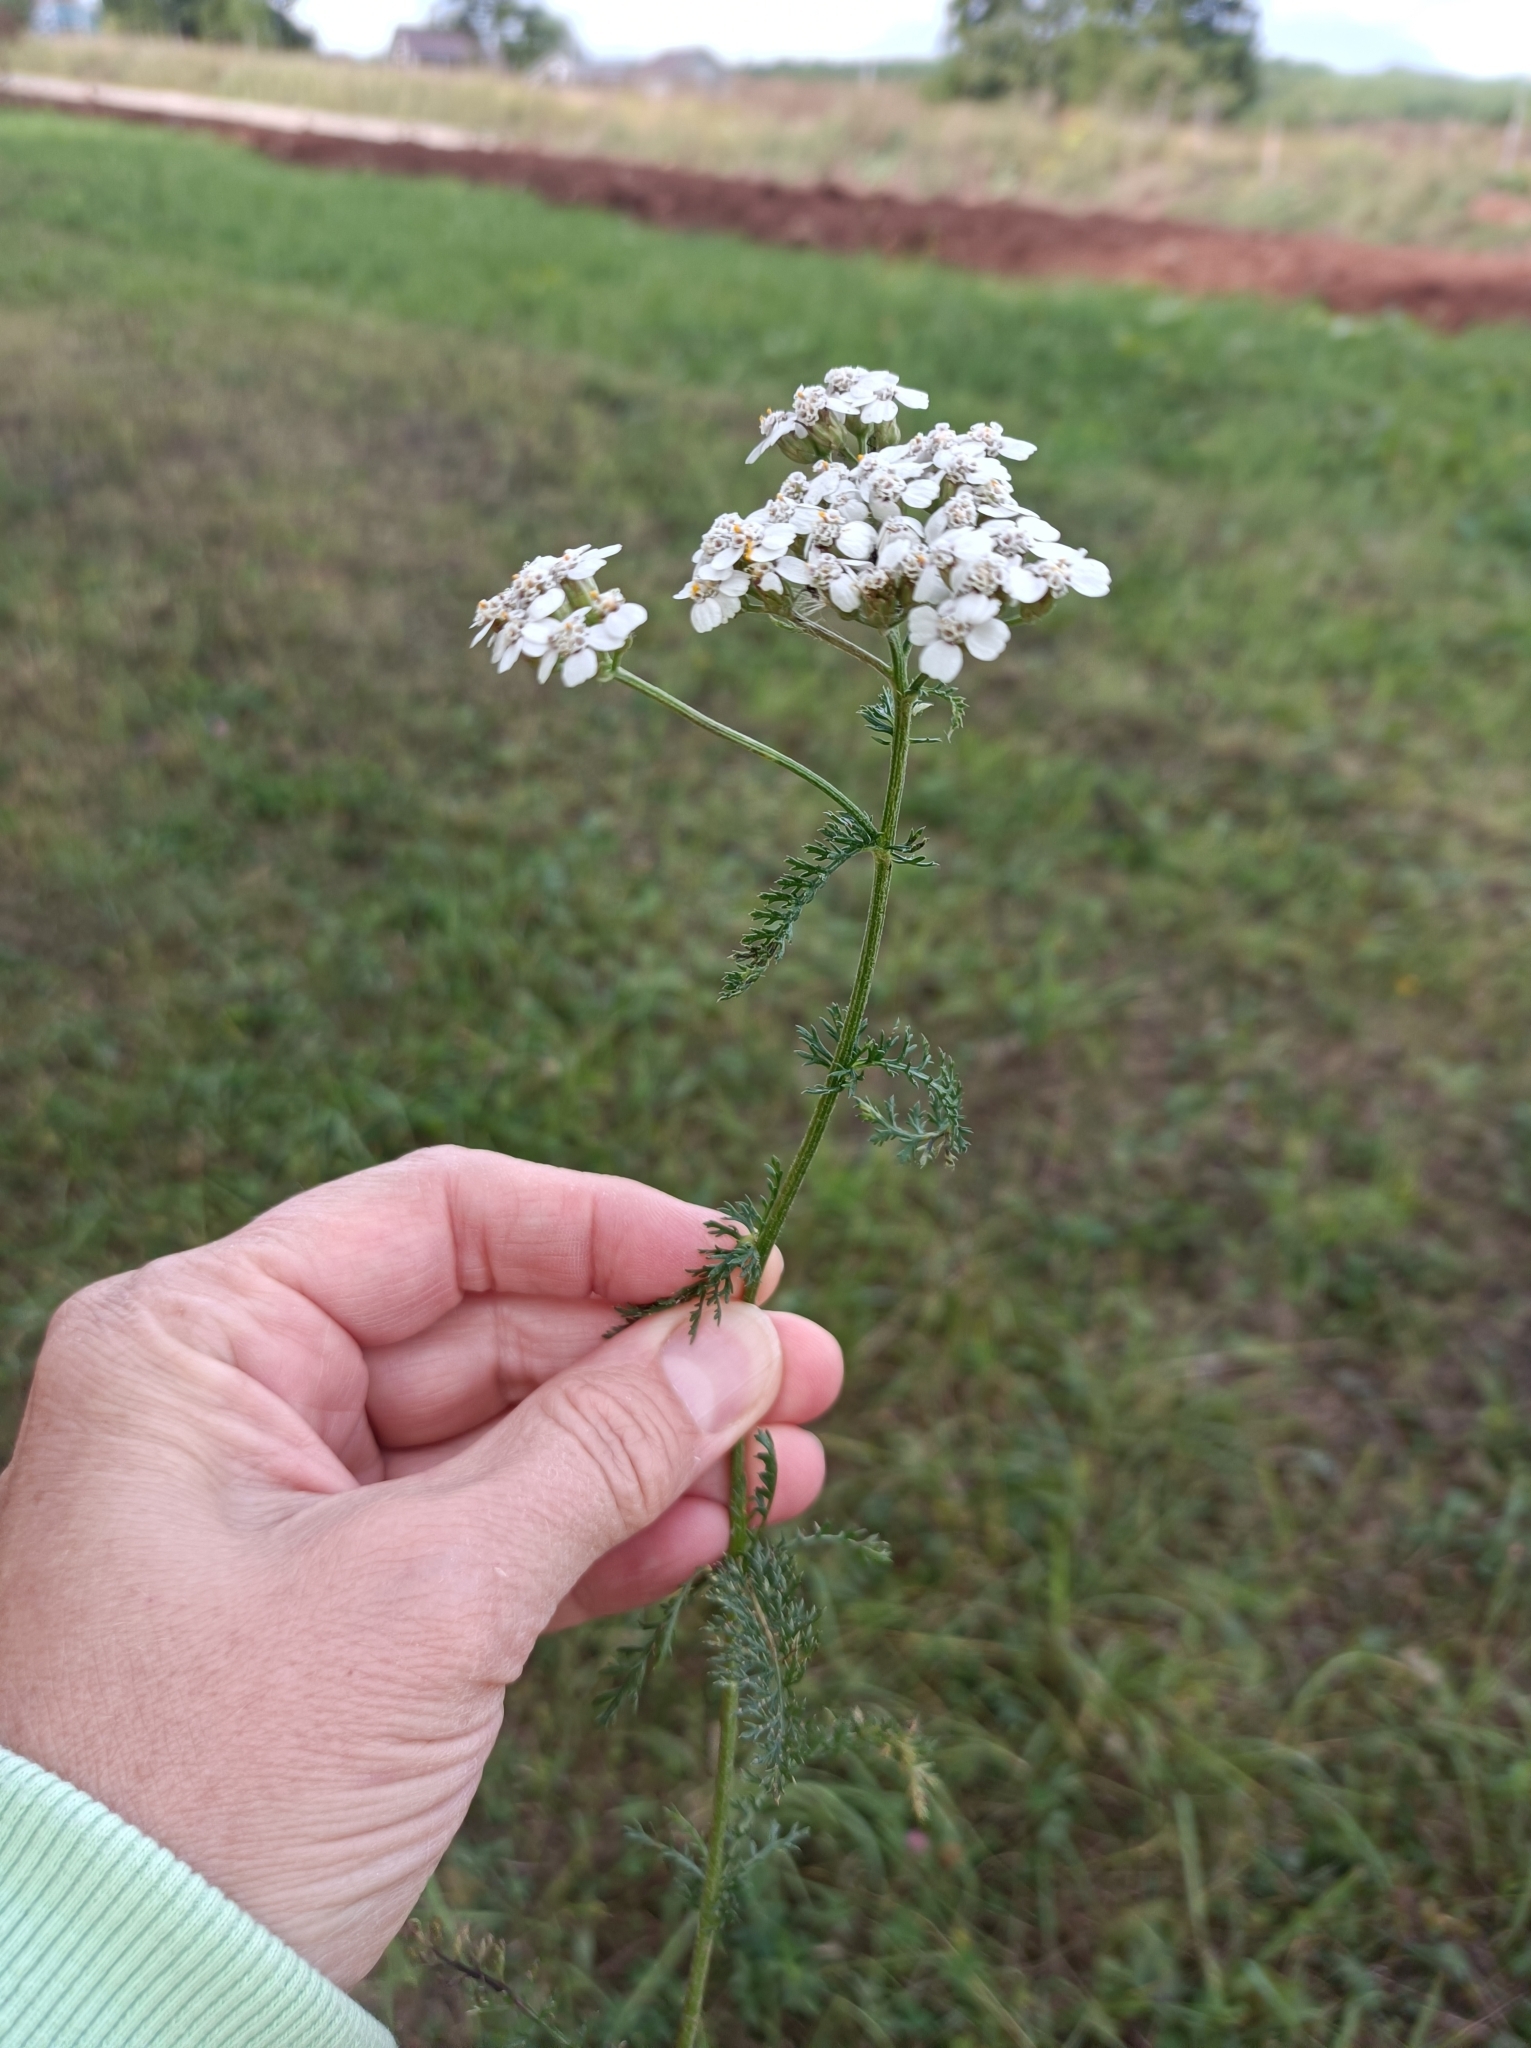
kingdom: Plantae
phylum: Tracheophyta
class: Magnoliopsida
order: Asterales
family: Asteraceae
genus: Achillea
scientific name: Achillea millefolium
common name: Yarrow
